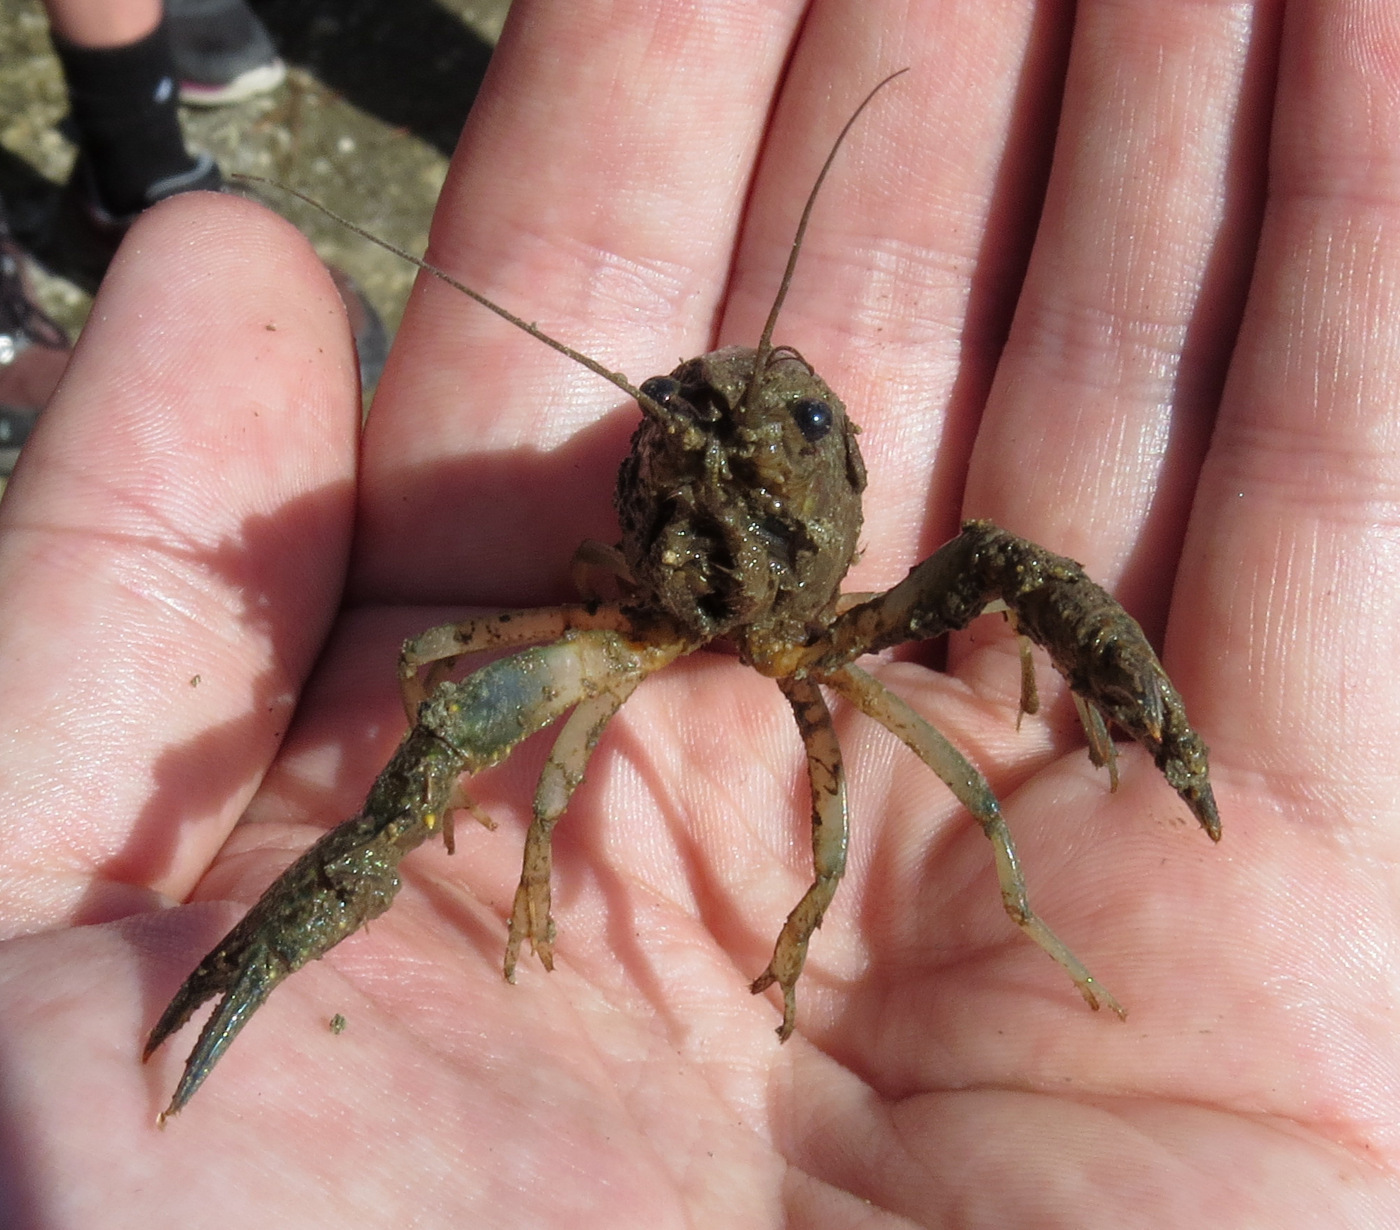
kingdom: Animalia
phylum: Arthropoda
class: Malacostraca
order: Decapoda
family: Cambaridae
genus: Procambarus
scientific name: Procambarus alleni
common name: Florida crayfish
